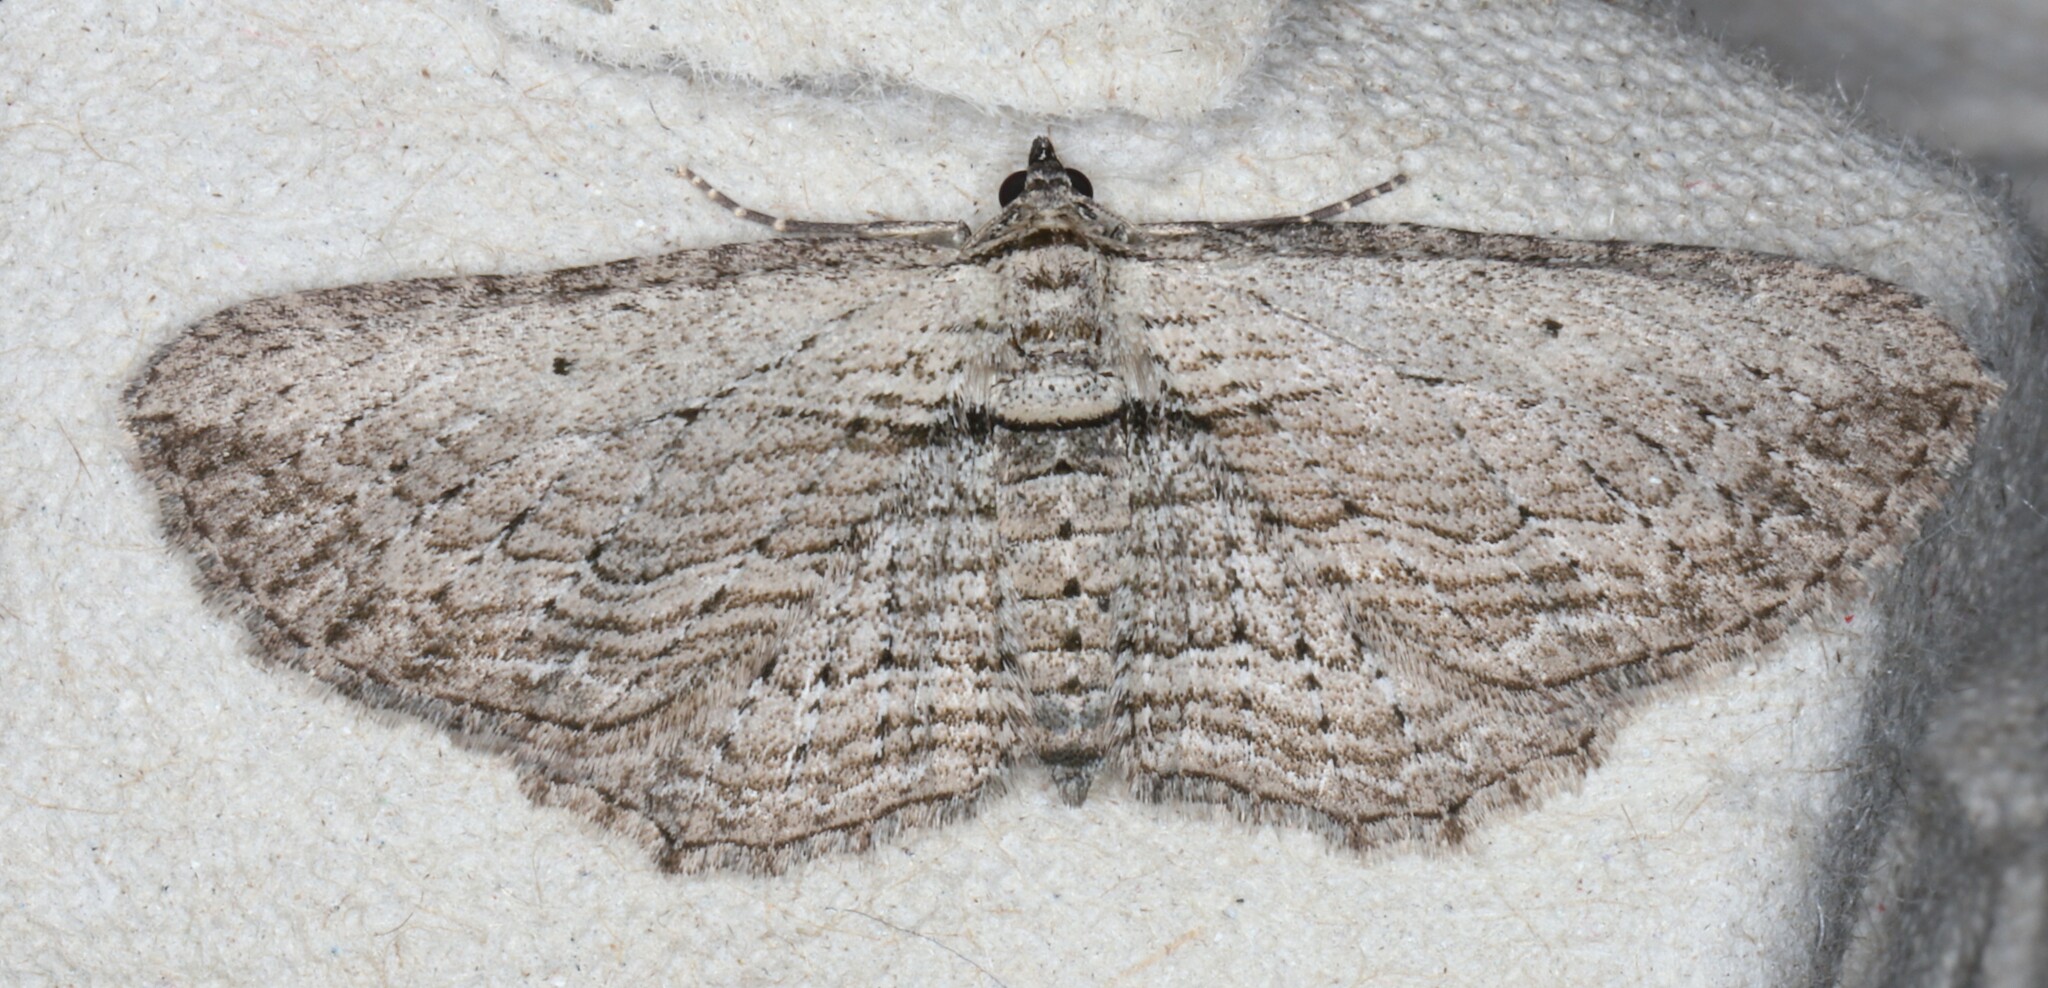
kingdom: Animalia
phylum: Arthropoda
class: Insecta
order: Lepidoptera
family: Geometridae
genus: Horisme
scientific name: Horisme intestinata
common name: Brown bark carpet
